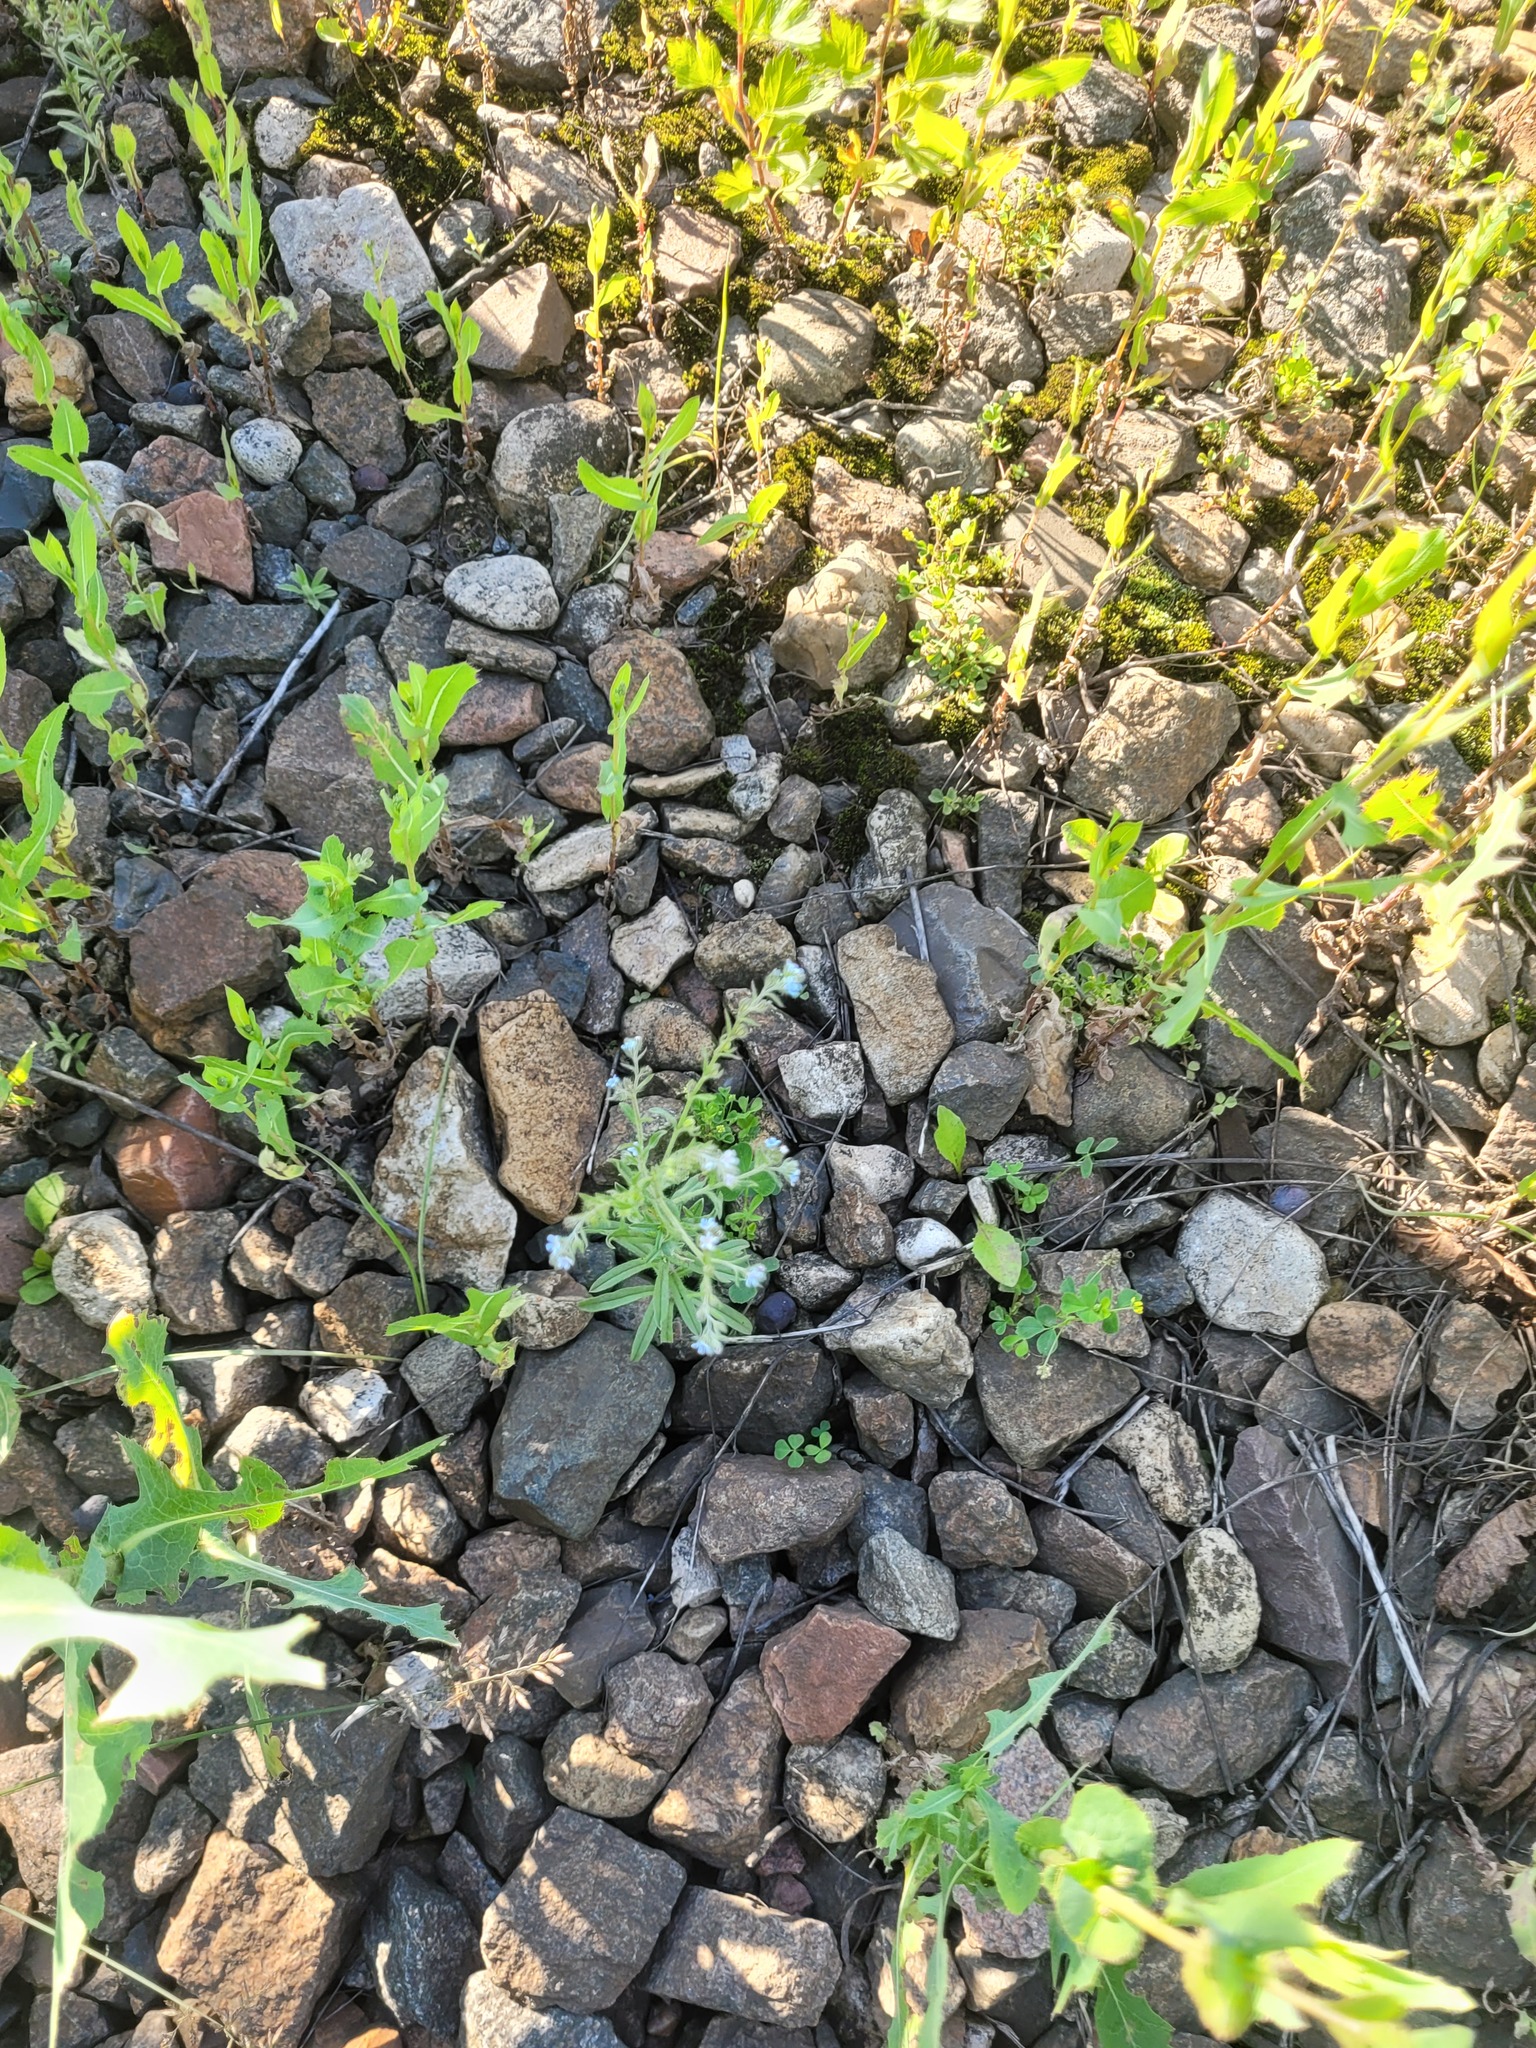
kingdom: Plantae
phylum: Tracheophyta
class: Magnoliopsida
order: Boraginales
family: Boraginaceae
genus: Lappula
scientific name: Lappula squarrosa
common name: European stickseed
